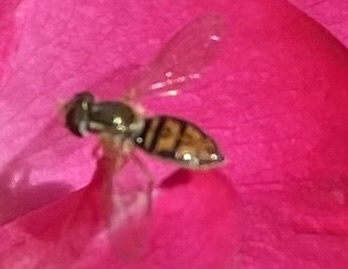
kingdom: Animalia
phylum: Arthropoda
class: Insecta
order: Diptera
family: Syrphidae
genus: Toxomerus
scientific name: Toxomerus marginatus
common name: Syrphid fly
